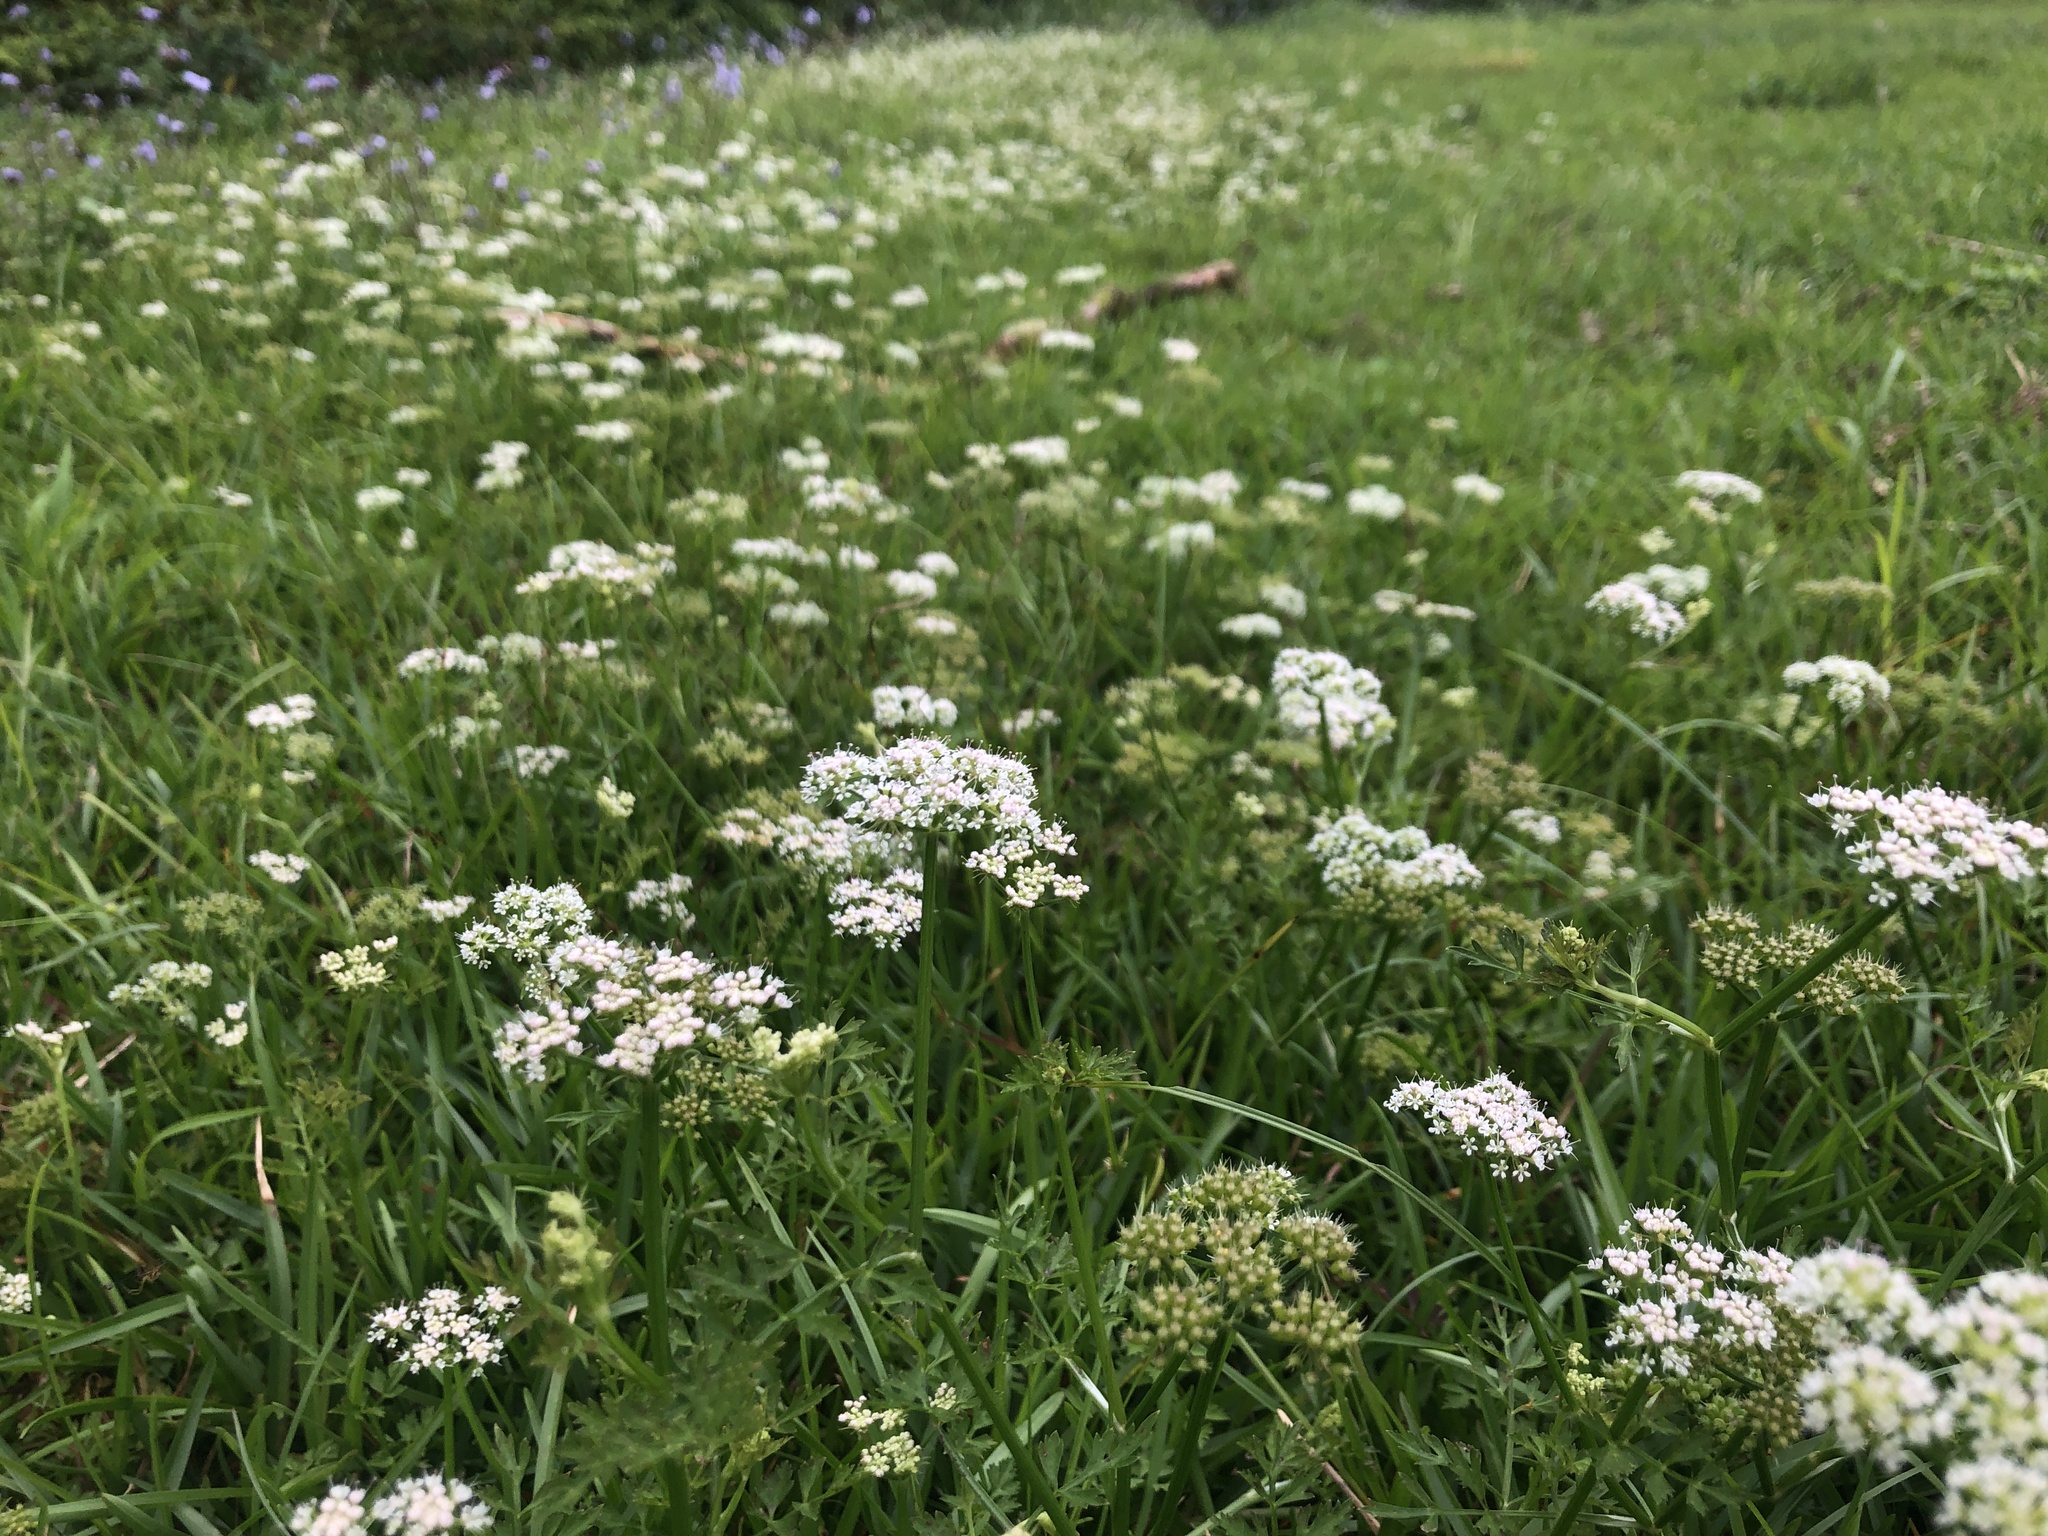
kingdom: Plantae
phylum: Tracheophyta
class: Magnoliopsida
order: Apiales
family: Apiaceae
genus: Oenanthe
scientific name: Oenanthe javanica
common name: Java water-dropwort
